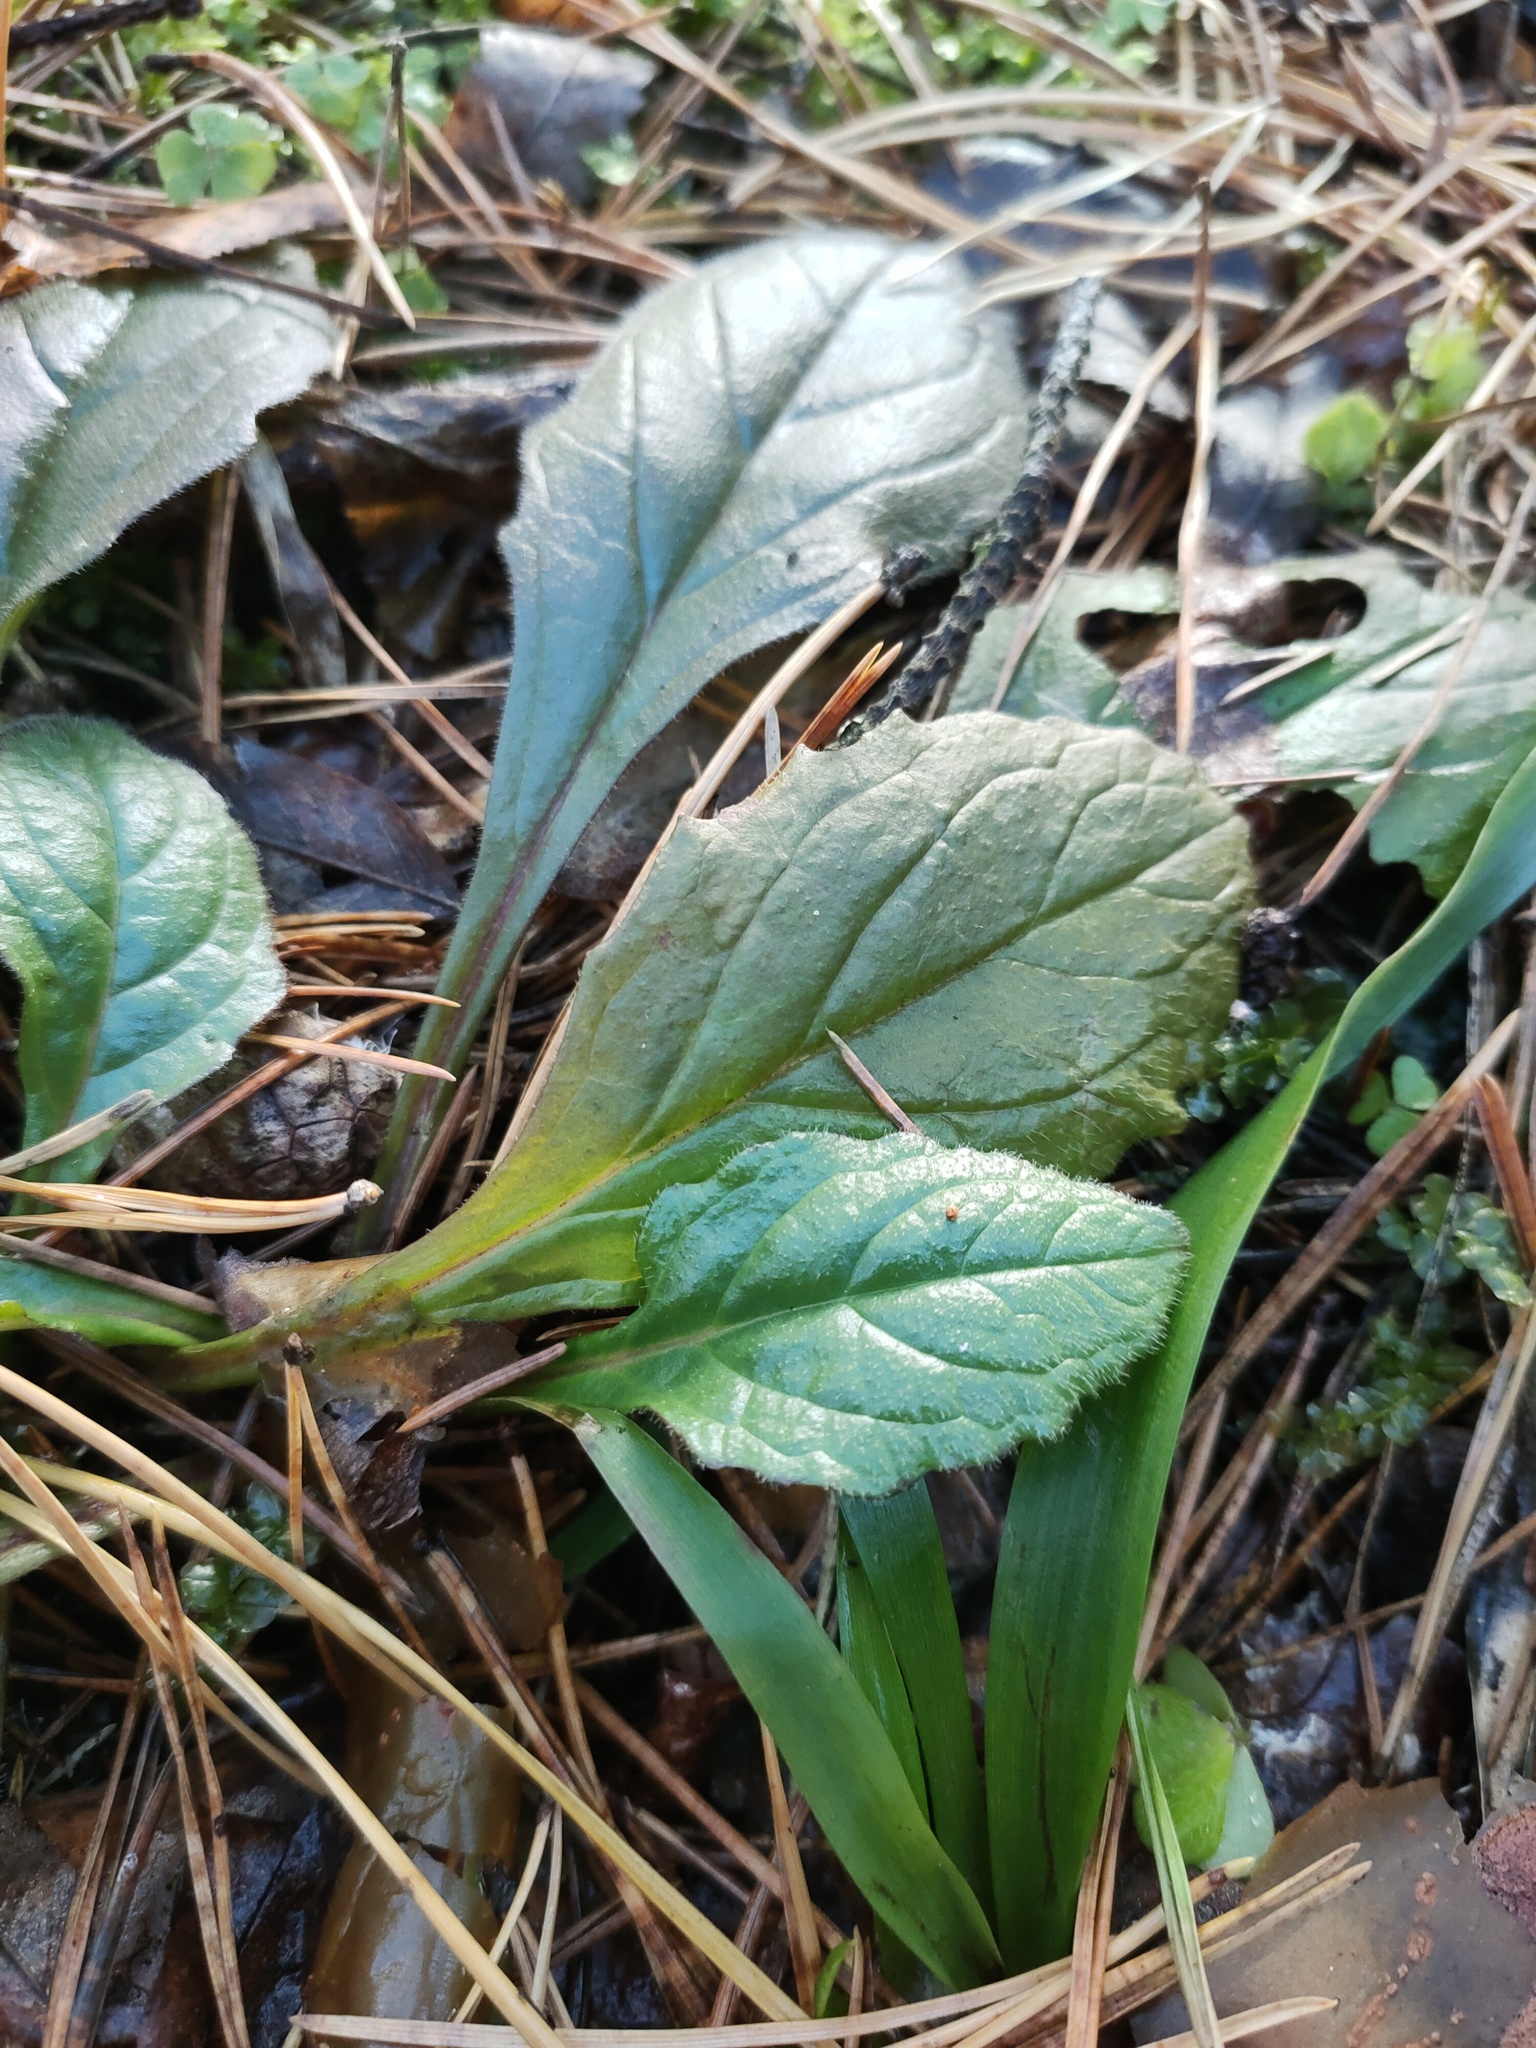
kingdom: Plantae
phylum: Tracheophyta
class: Magnoliopsida
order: Lamiales
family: Lamiaceae
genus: Ajuga
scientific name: Ajuga reptans
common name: Bugle
